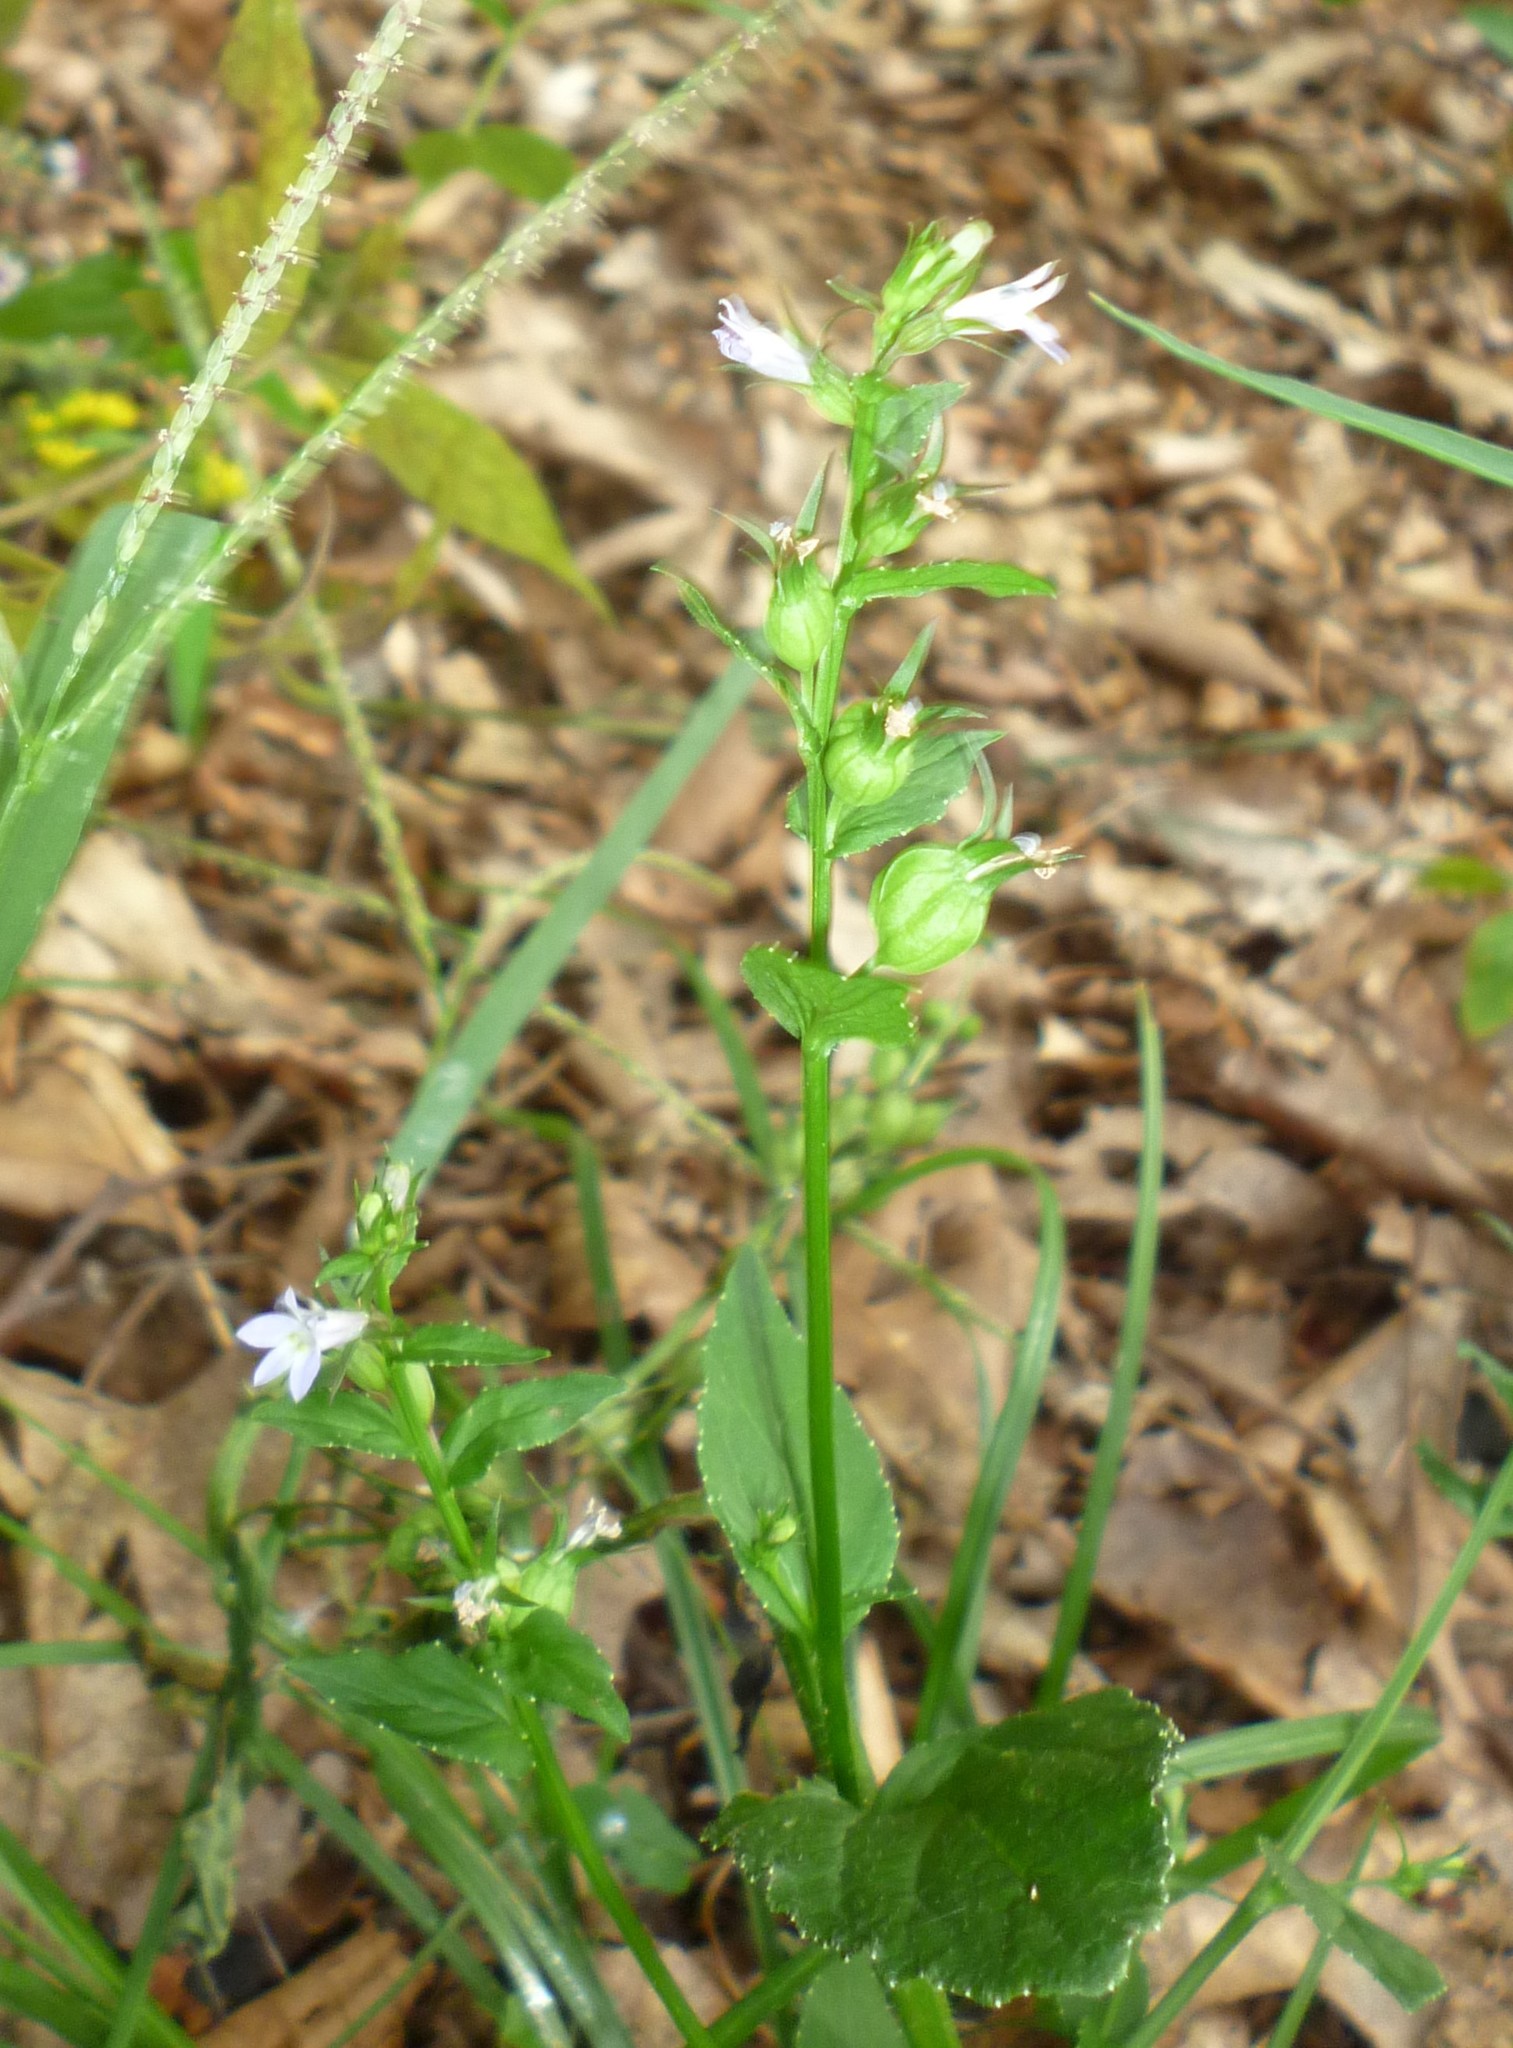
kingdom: Plantae
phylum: Tracheophyta
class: Magnoliopsida
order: Asterales
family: Campanulaceae
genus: Lobelia
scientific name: Lobelia inflata
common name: Indian tobacco
